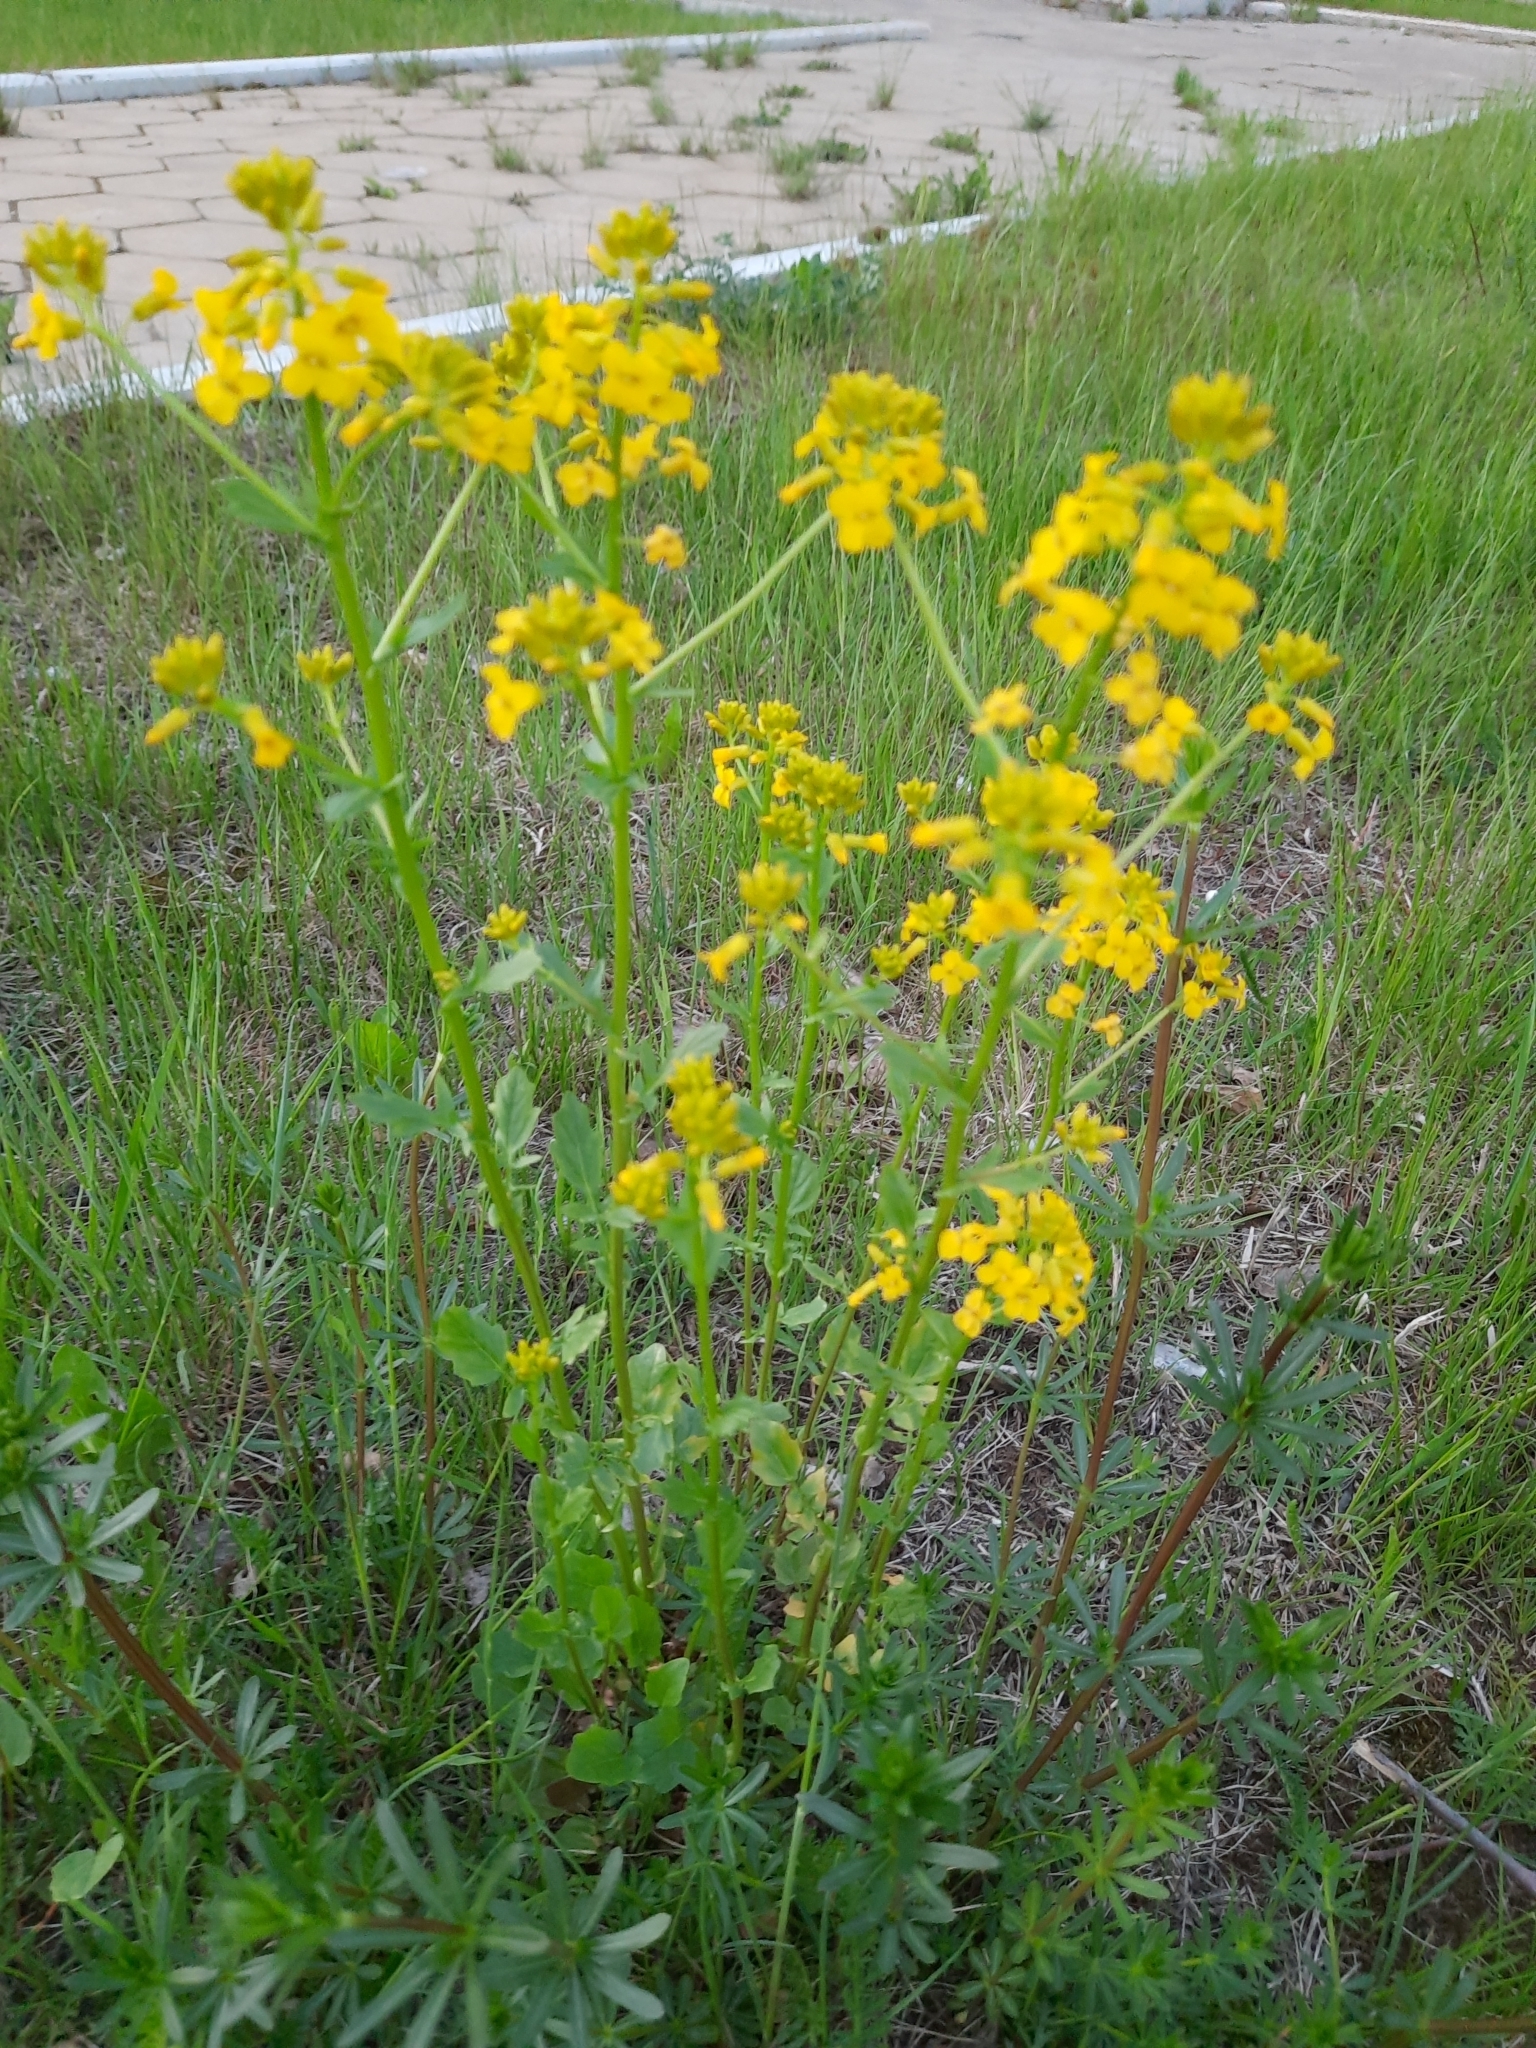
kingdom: Plantae
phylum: Tracheophyta
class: Magnoliopsida
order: Brassicales
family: Brassicaceae
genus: Barbarea
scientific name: Barbarea vulgaris
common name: Cressy-greens
